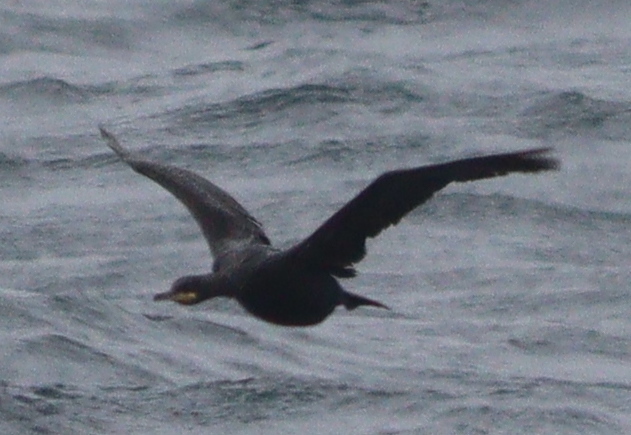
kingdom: Animalia
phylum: Chordata
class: Aves
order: Suliformes
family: Phalacrocoracidae
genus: Phalacrocorax
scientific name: Phalacrocorax aristotelis
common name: European shag
